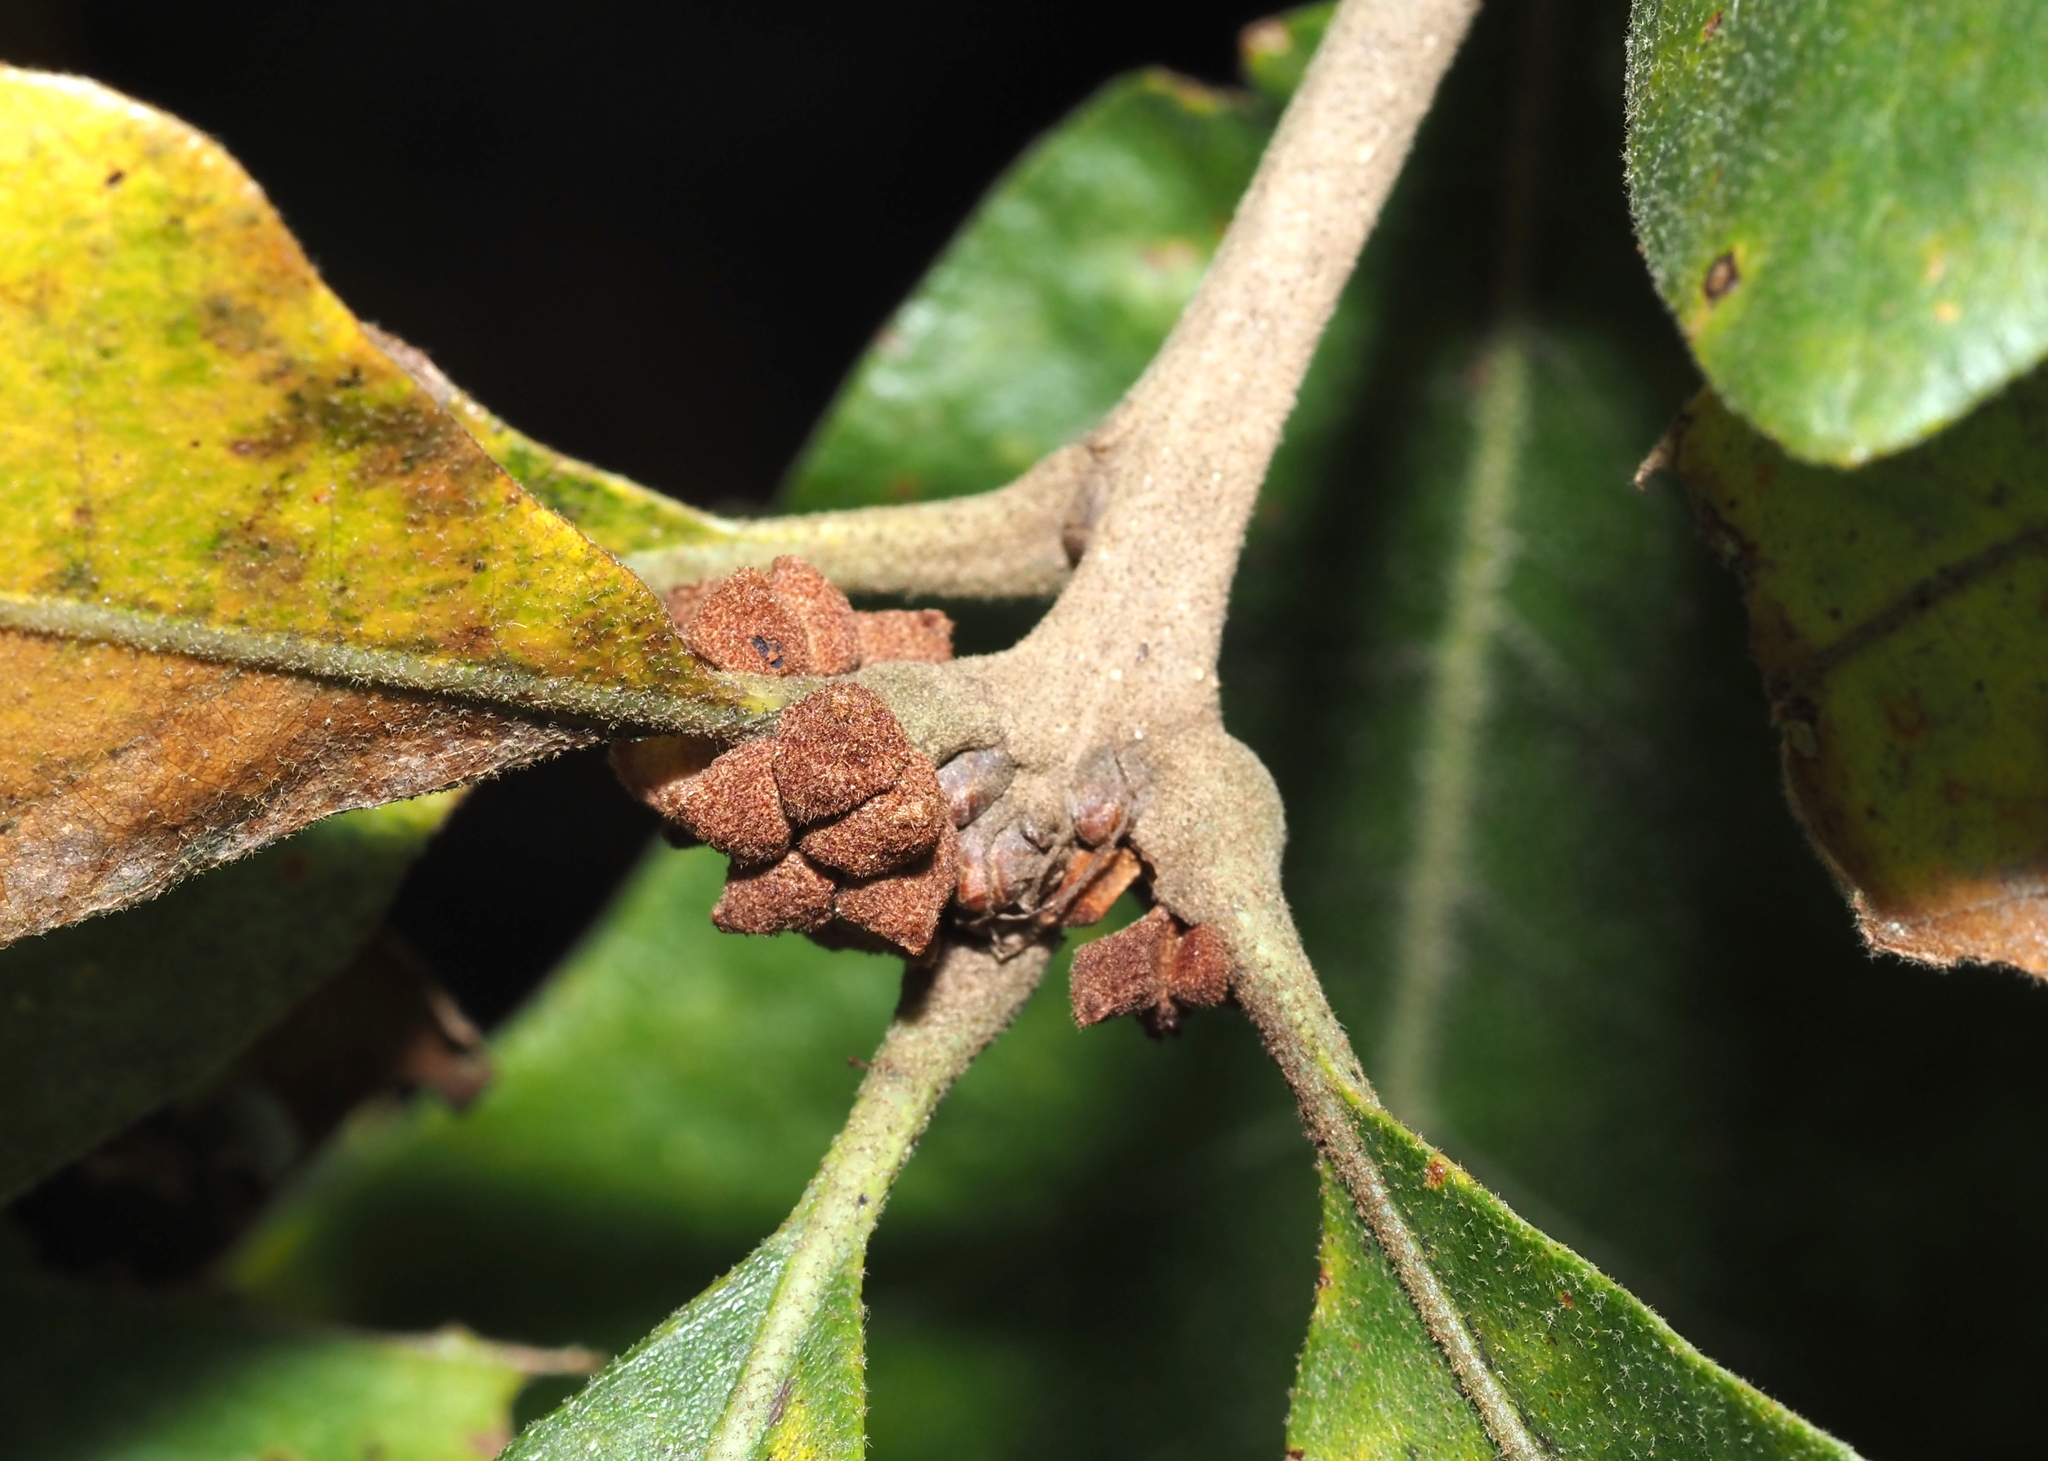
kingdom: Animalia
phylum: Arthropoda
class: Insecta
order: Hymenoptera
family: Cynipidae
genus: Andricus
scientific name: Andricus
